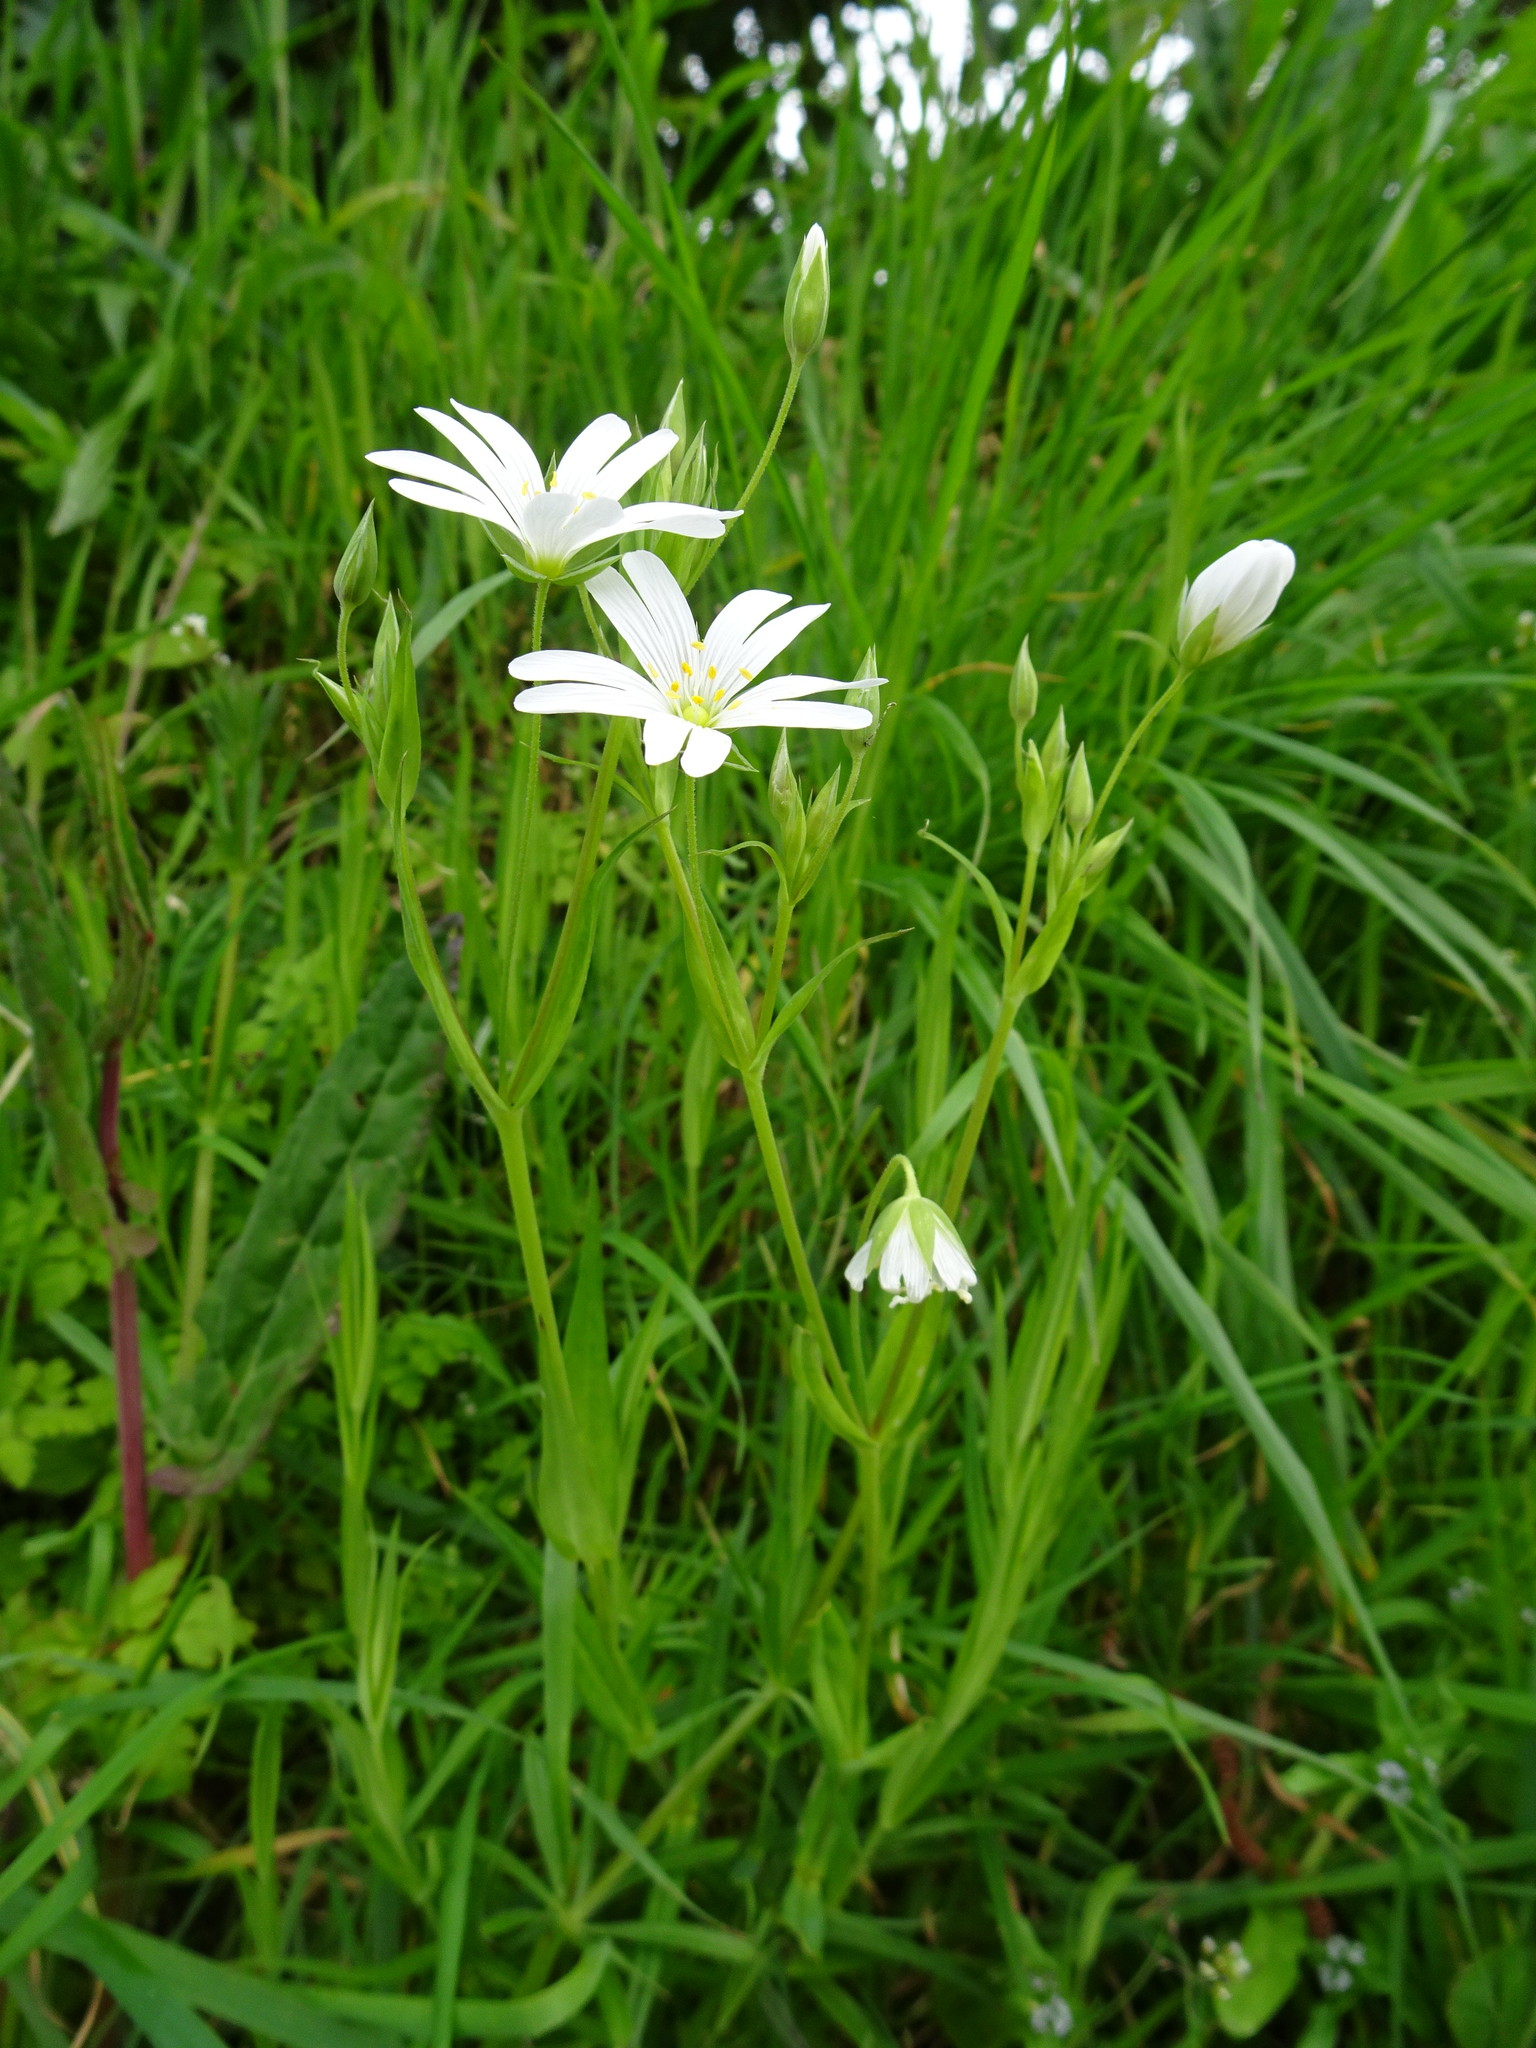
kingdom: Plantae
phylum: Tracheophyta
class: Magnoliopsida
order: Caryophyllales
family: Caryophyllaceae
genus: Rabelera
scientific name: Rabelera holostea
